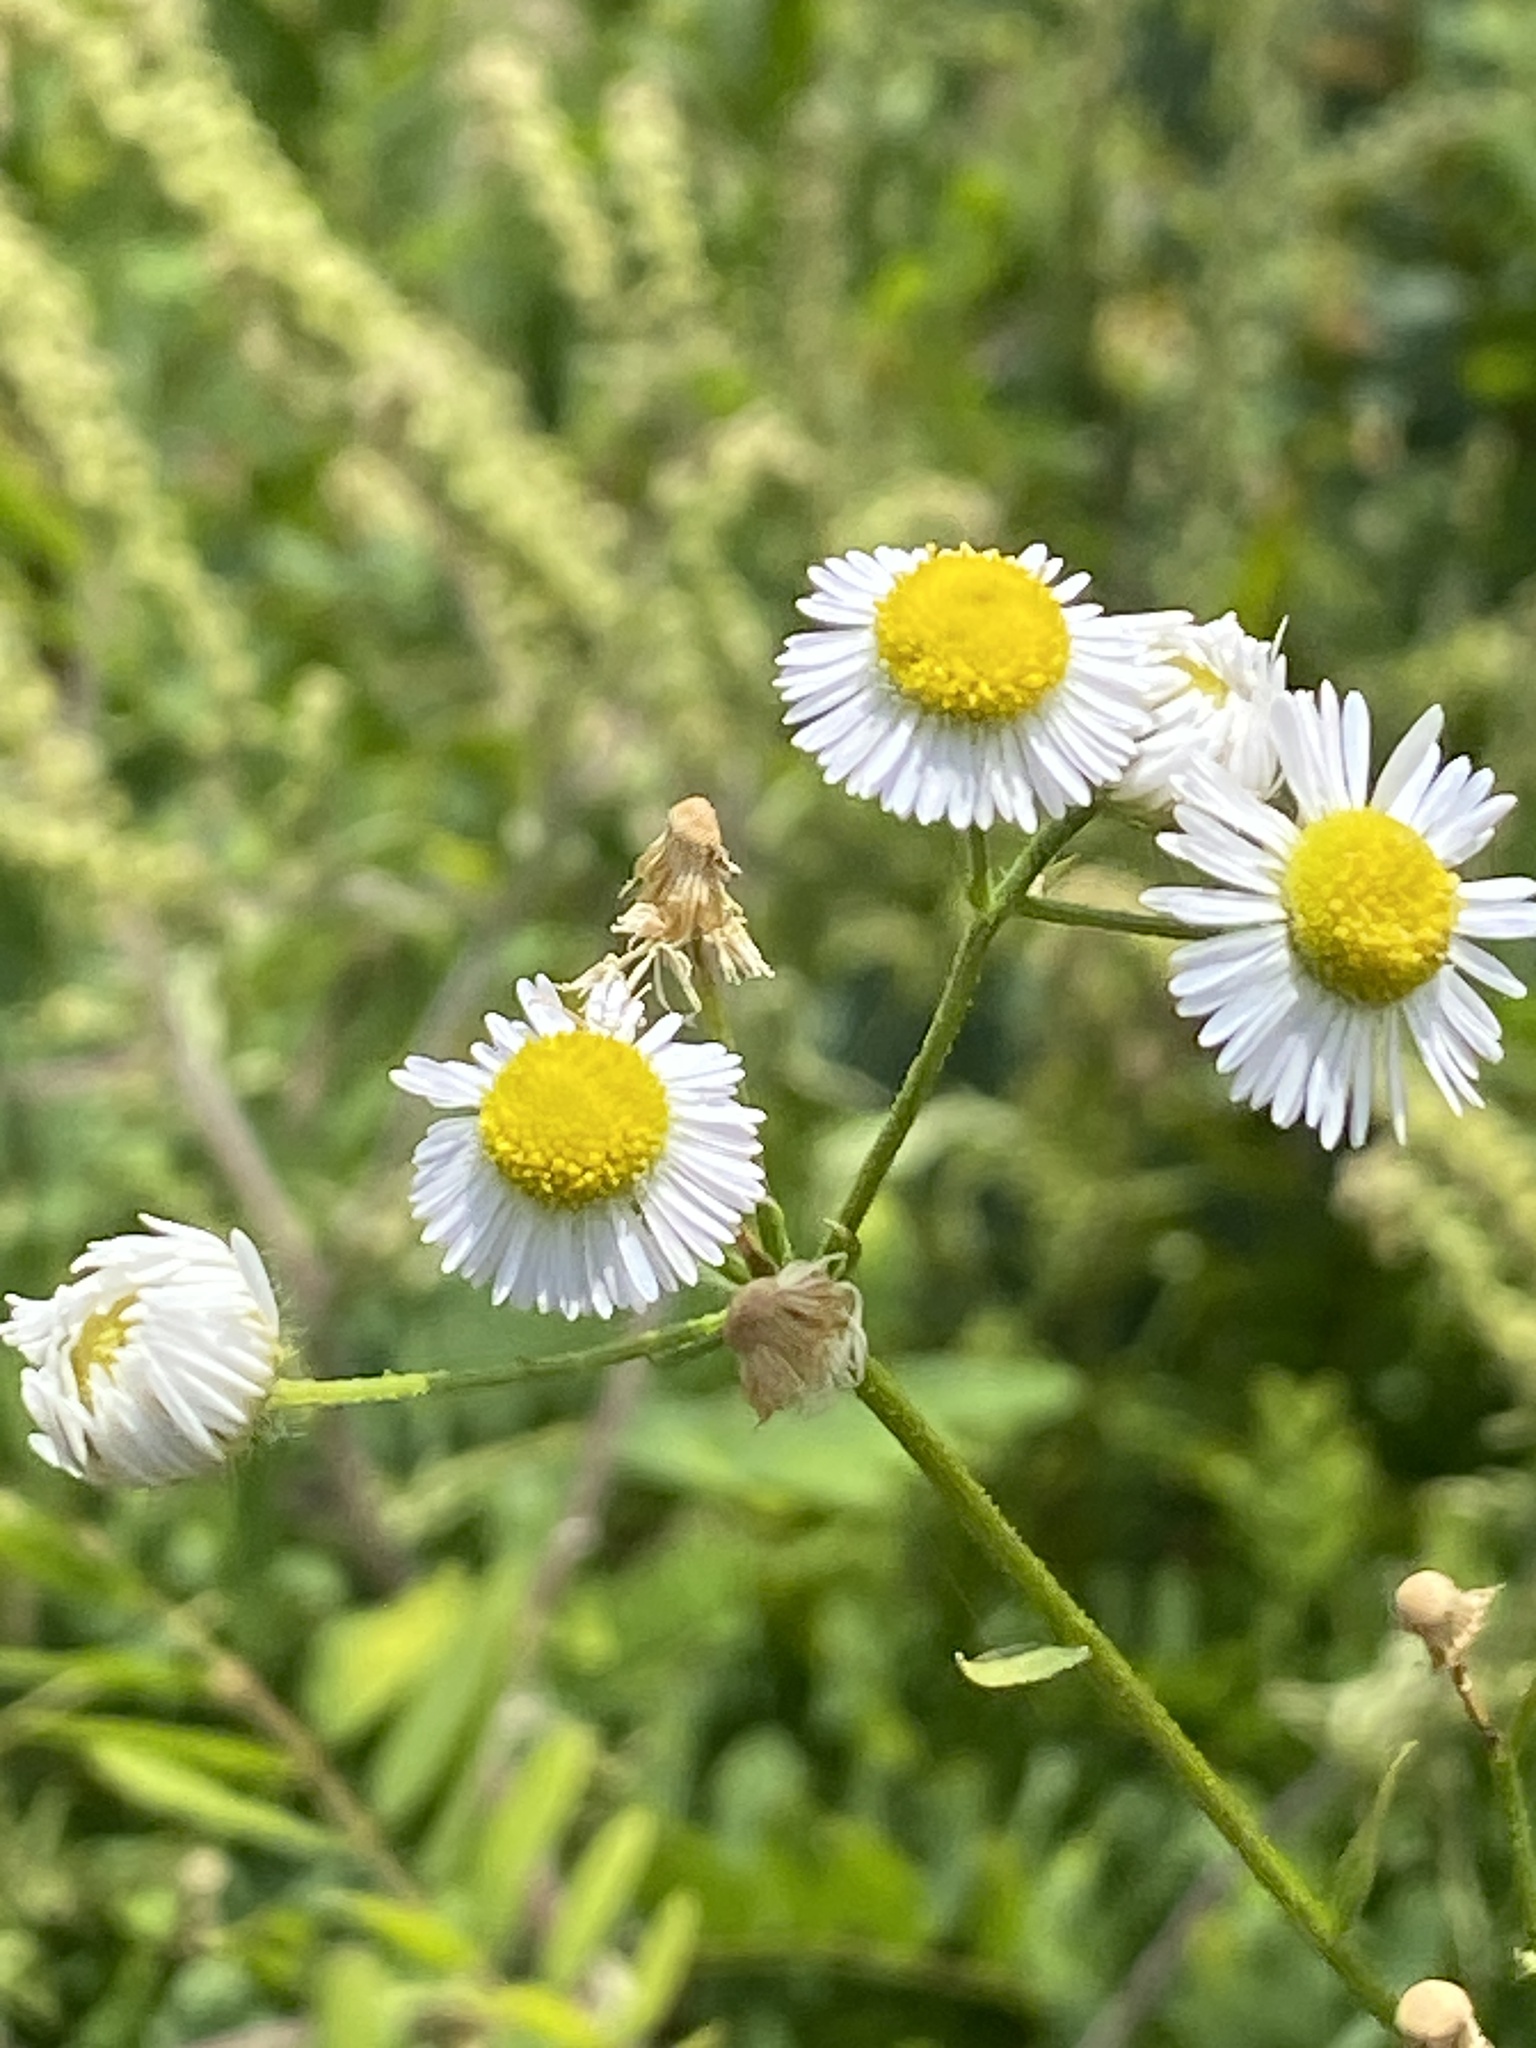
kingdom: Plantae
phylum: Tracheophyta
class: Magnoliopsida
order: Asterales
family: Asteraceae
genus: Erigeron
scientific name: Erigeron strigosus
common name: Common eastern fleabane
